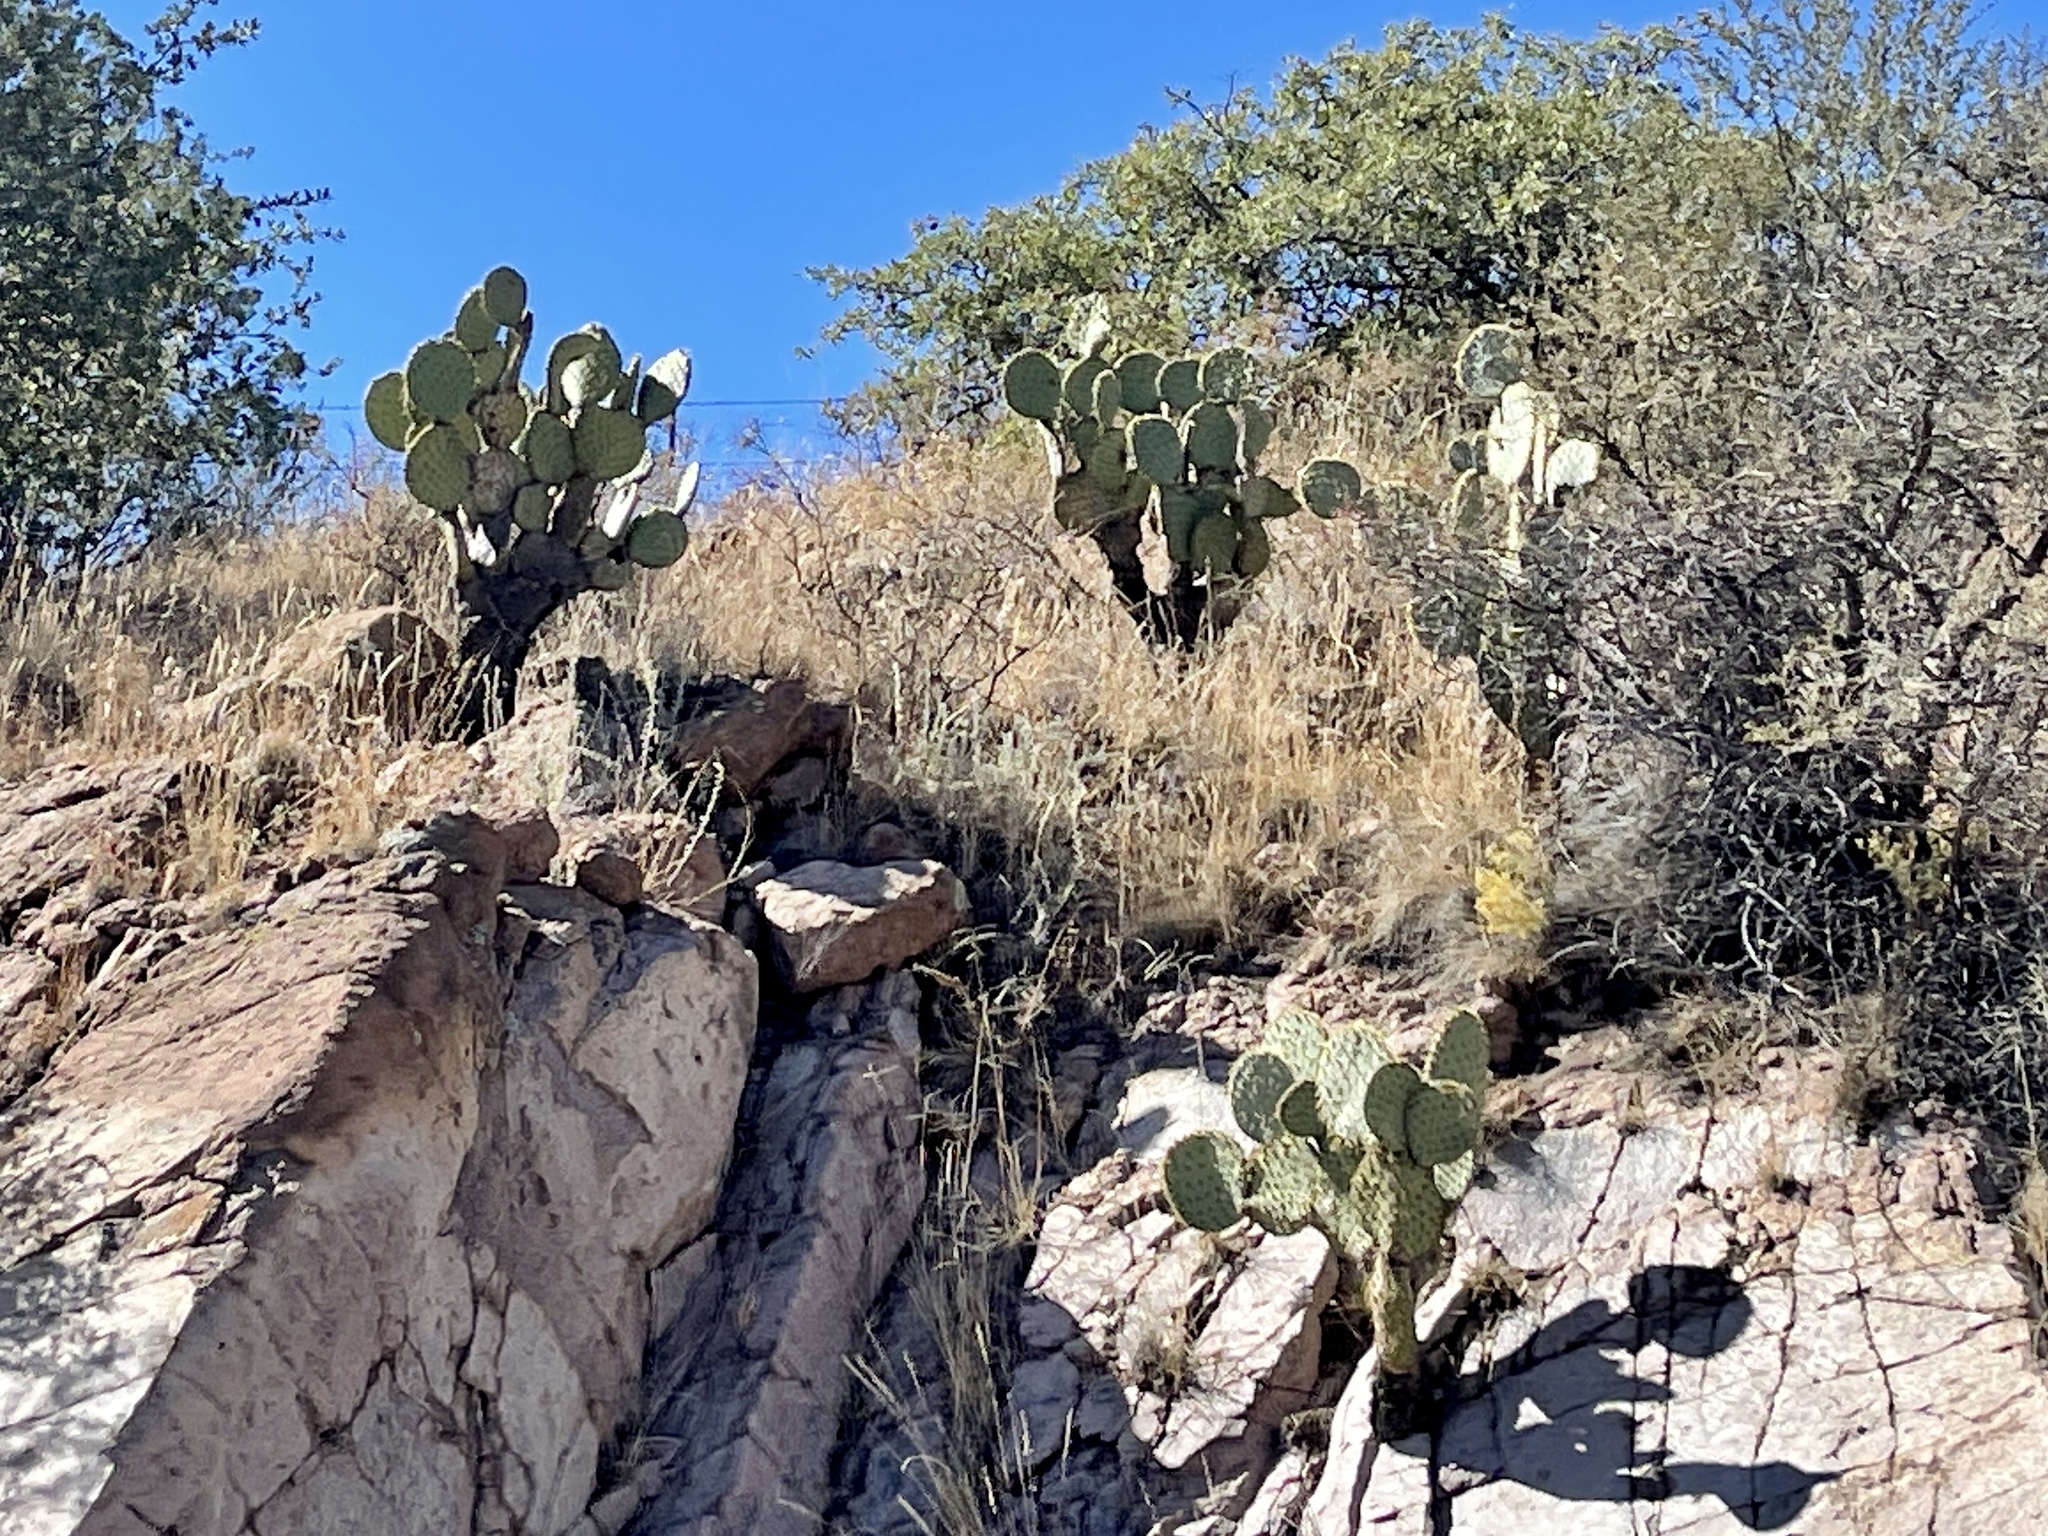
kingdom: Plantae
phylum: Tracheophyta
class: Magnoliopsida
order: Caryophyllales
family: Cactaceae
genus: Opuntia
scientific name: Opuntia chlorotica
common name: Dollar-joint prickly-pear
